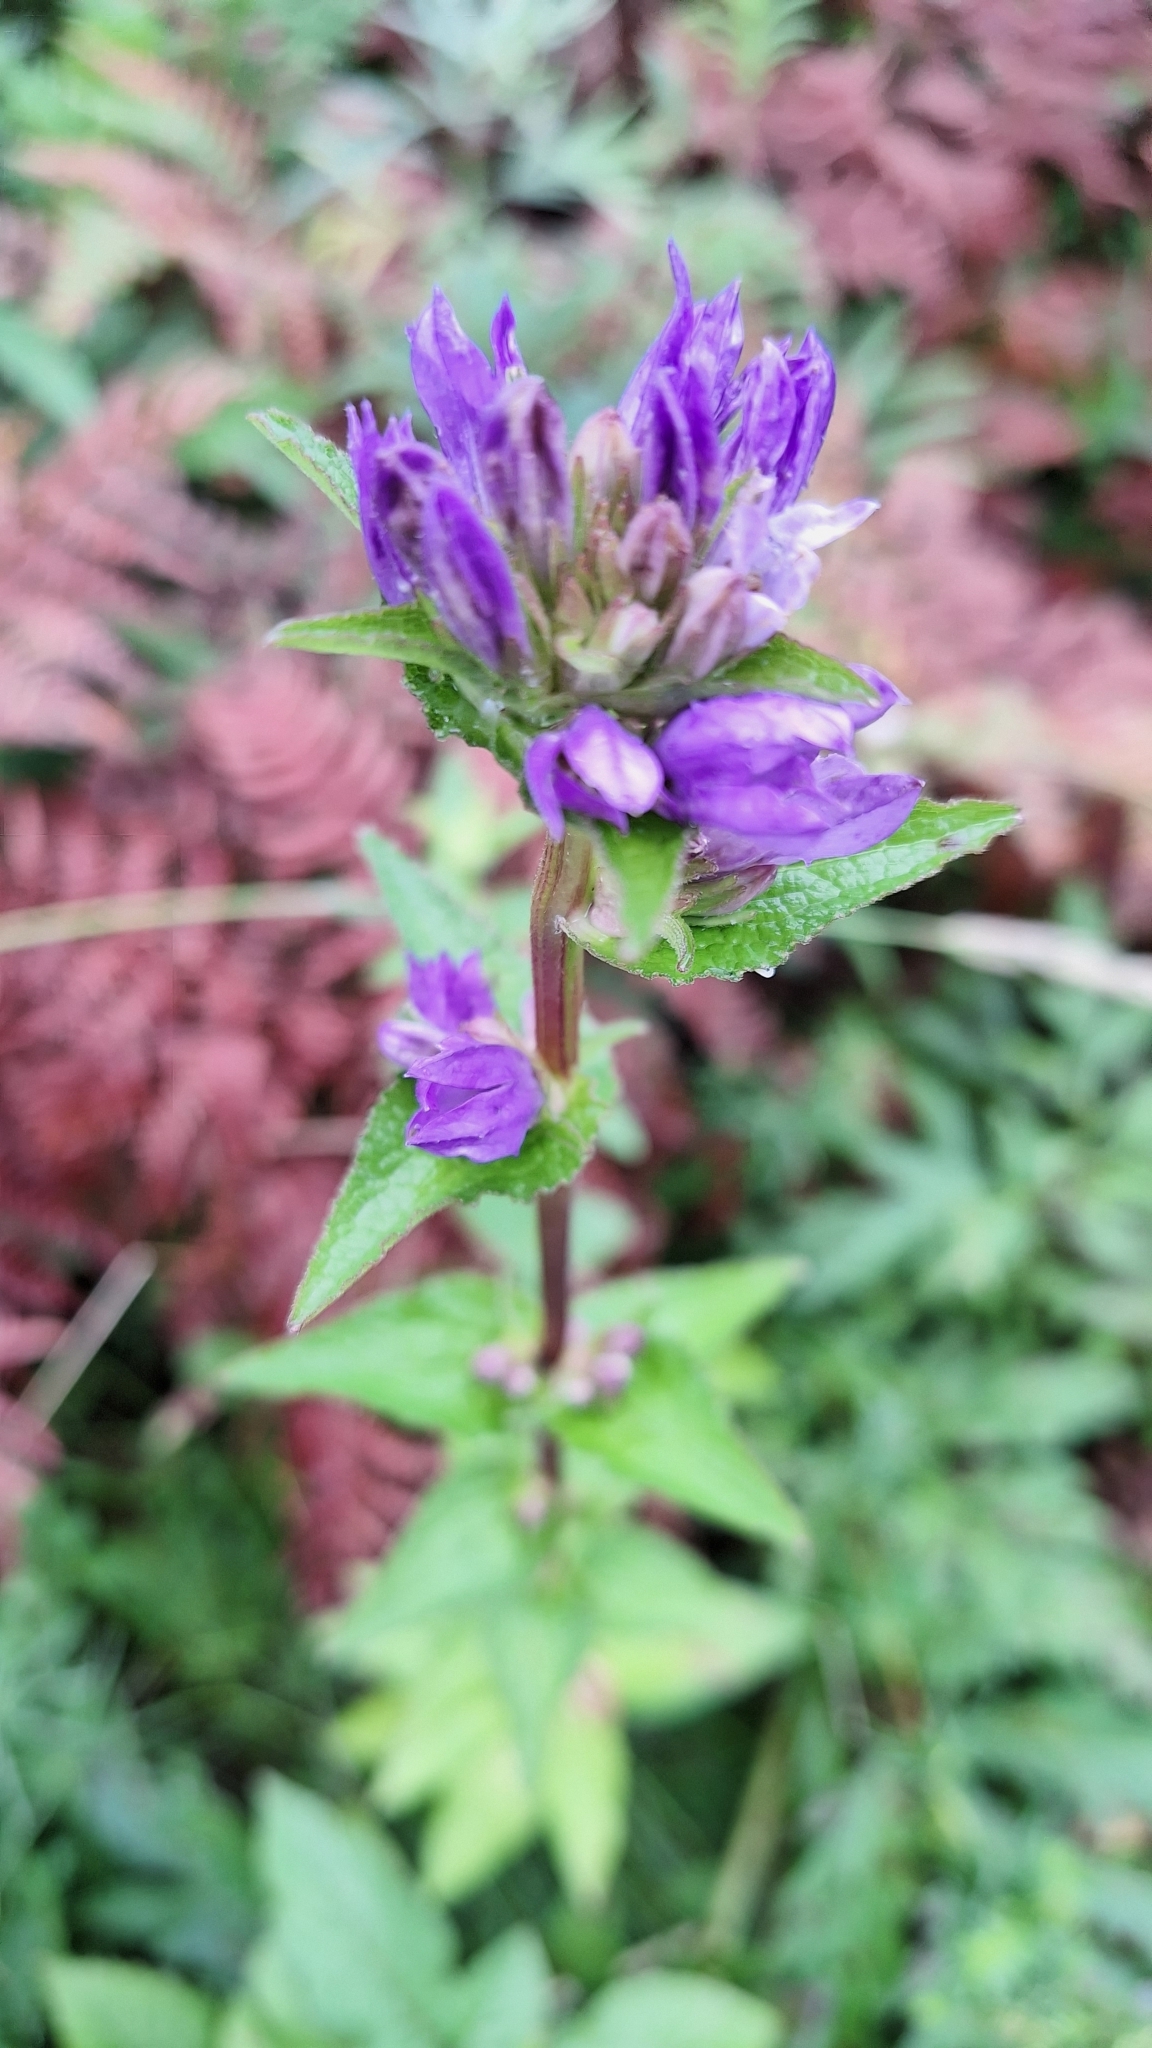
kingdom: Plantae
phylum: Tracheophyta
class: Magnoliopsida
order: Asterales
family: Campanulaceae
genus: Campanula
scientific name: Campanula glomerata
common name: Clustered bellflower
